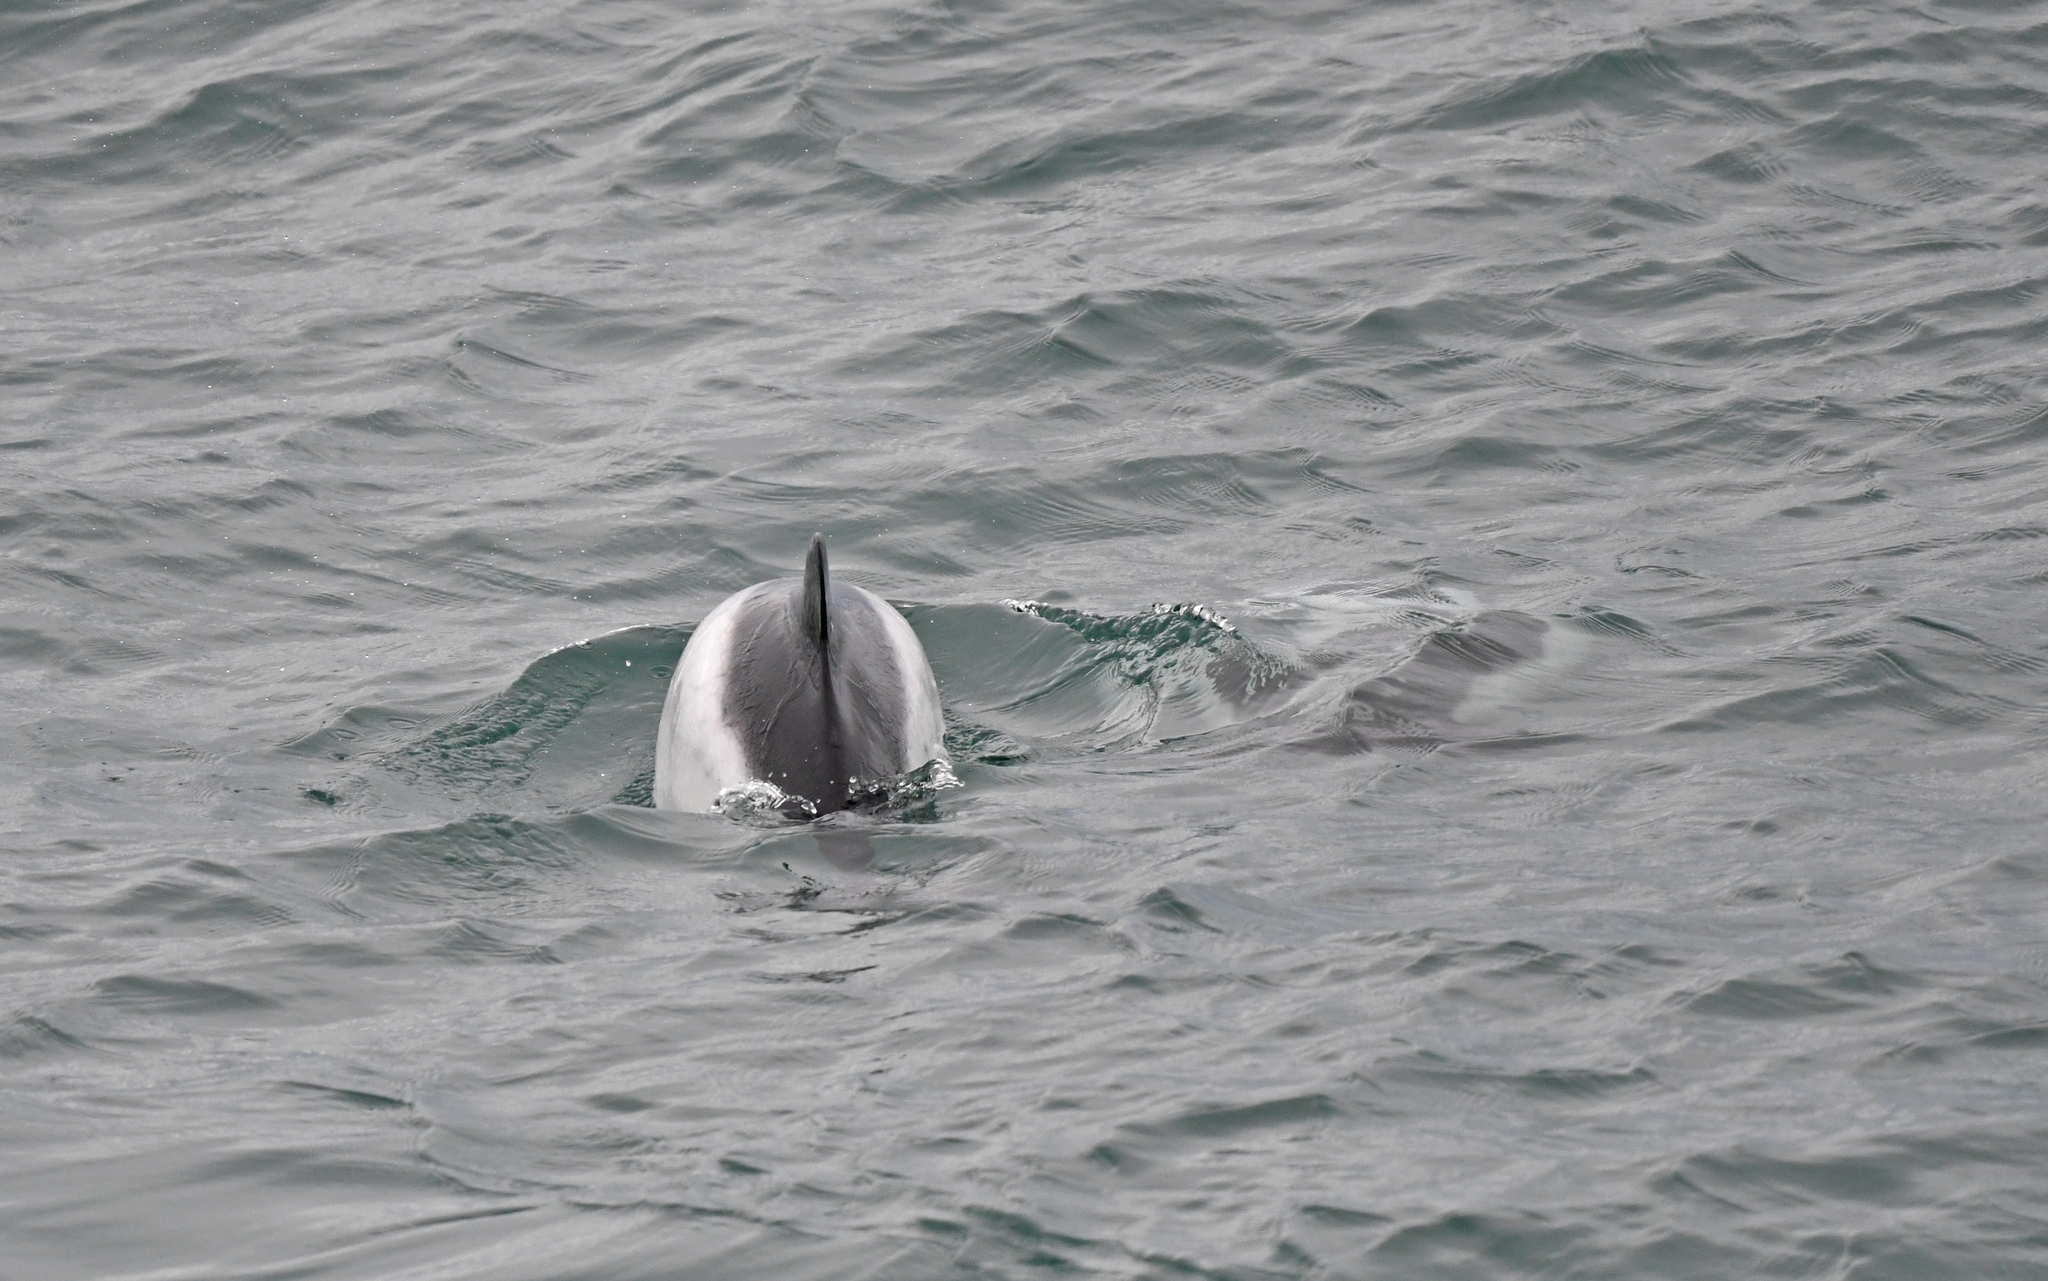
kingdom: Animalia
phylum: Chordata
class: Mammalia
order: Cetacea
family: Delphinidae
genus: Cephalorhynchus
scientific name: Cephalorhynchus commersonii
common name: Commerson's dolphin
